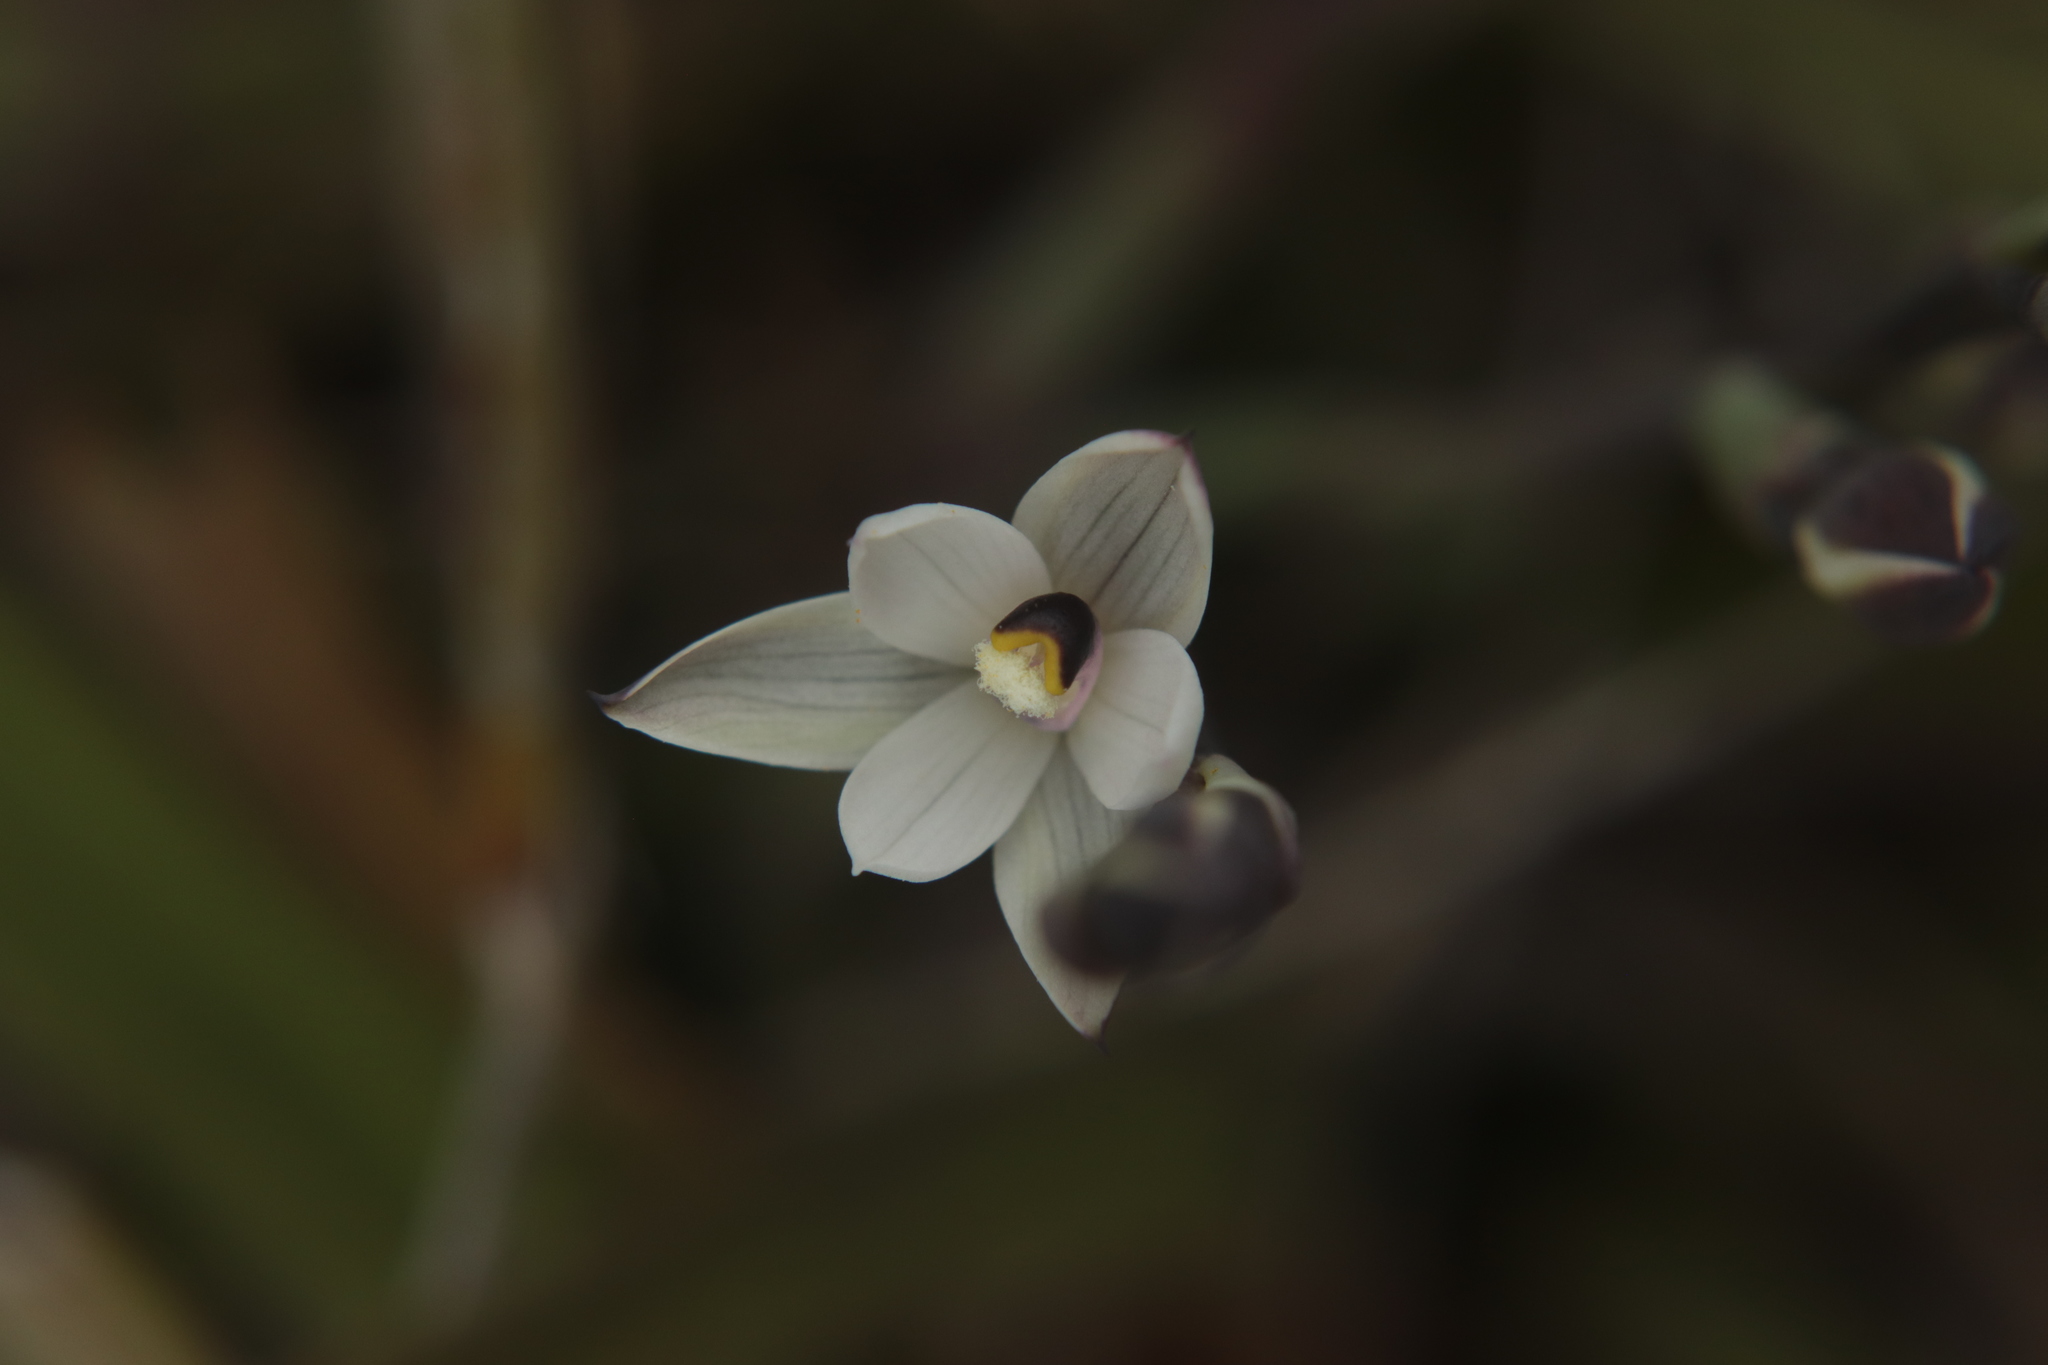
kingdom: Plantae
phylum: Tracheophyta
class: Liliopsida
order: Asparagales
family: Orchidaceae
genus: Thelymitra
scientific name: Thelymitra longifolia
